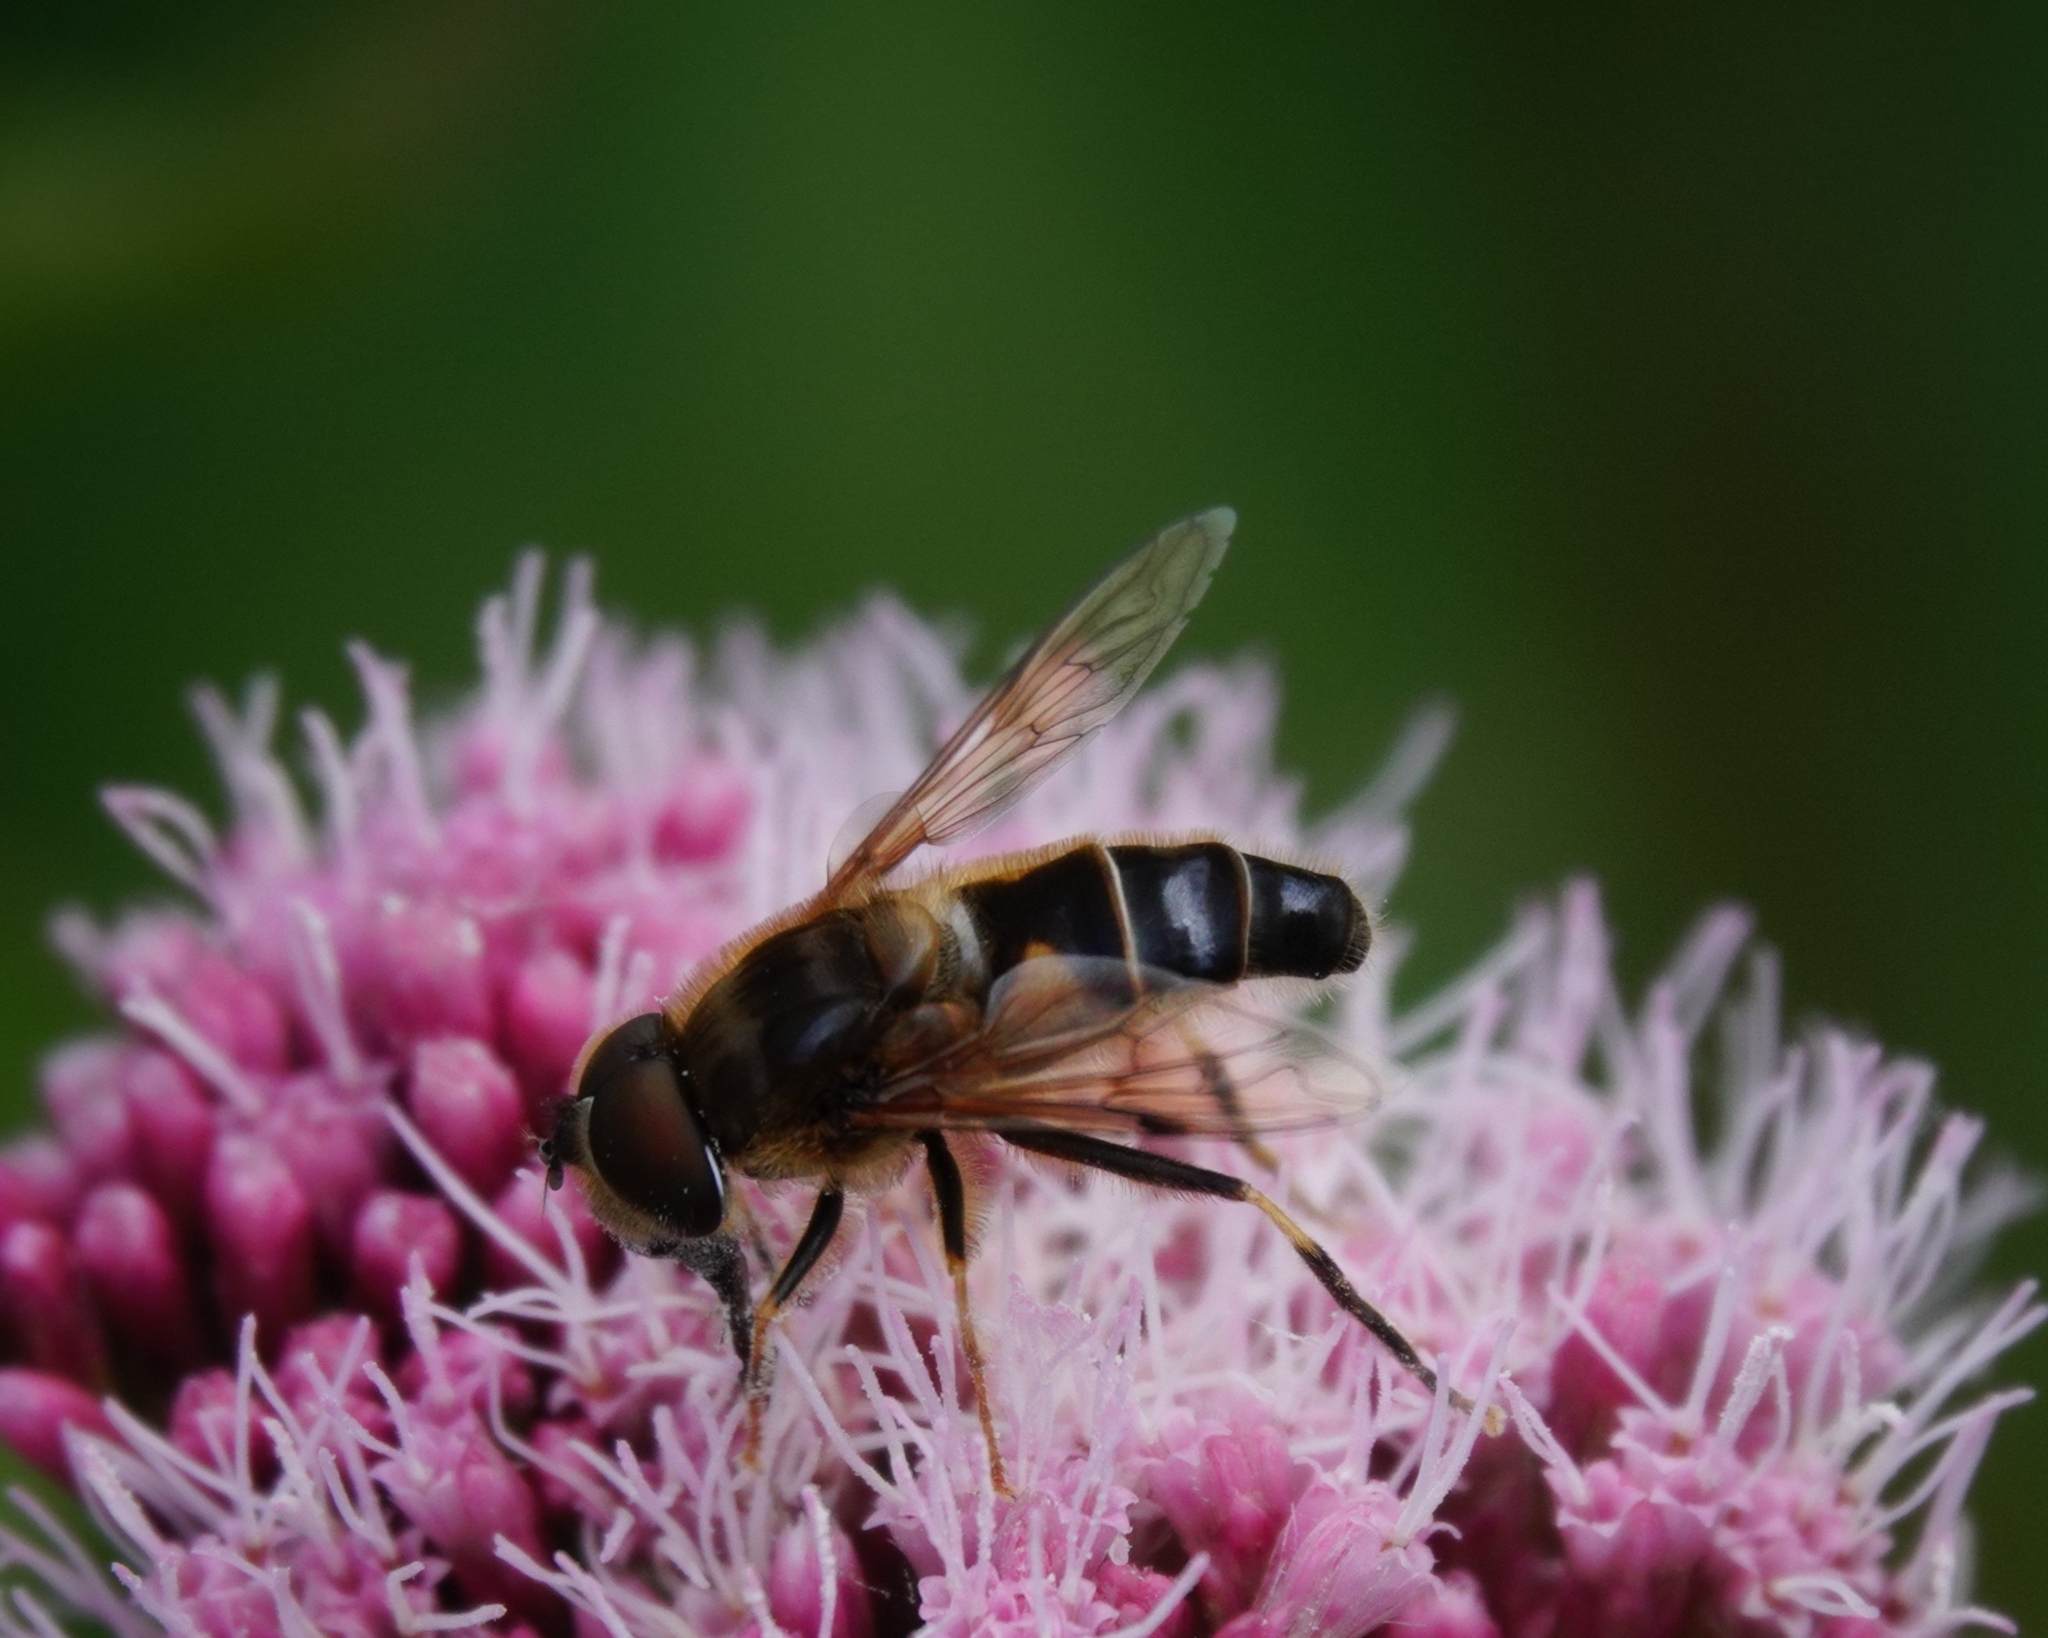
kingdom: Animalia
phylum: Arthropoda
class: Insecta
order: Diptera
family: Syrphidae
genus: Eristalis
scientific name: Eristalis pertinax
